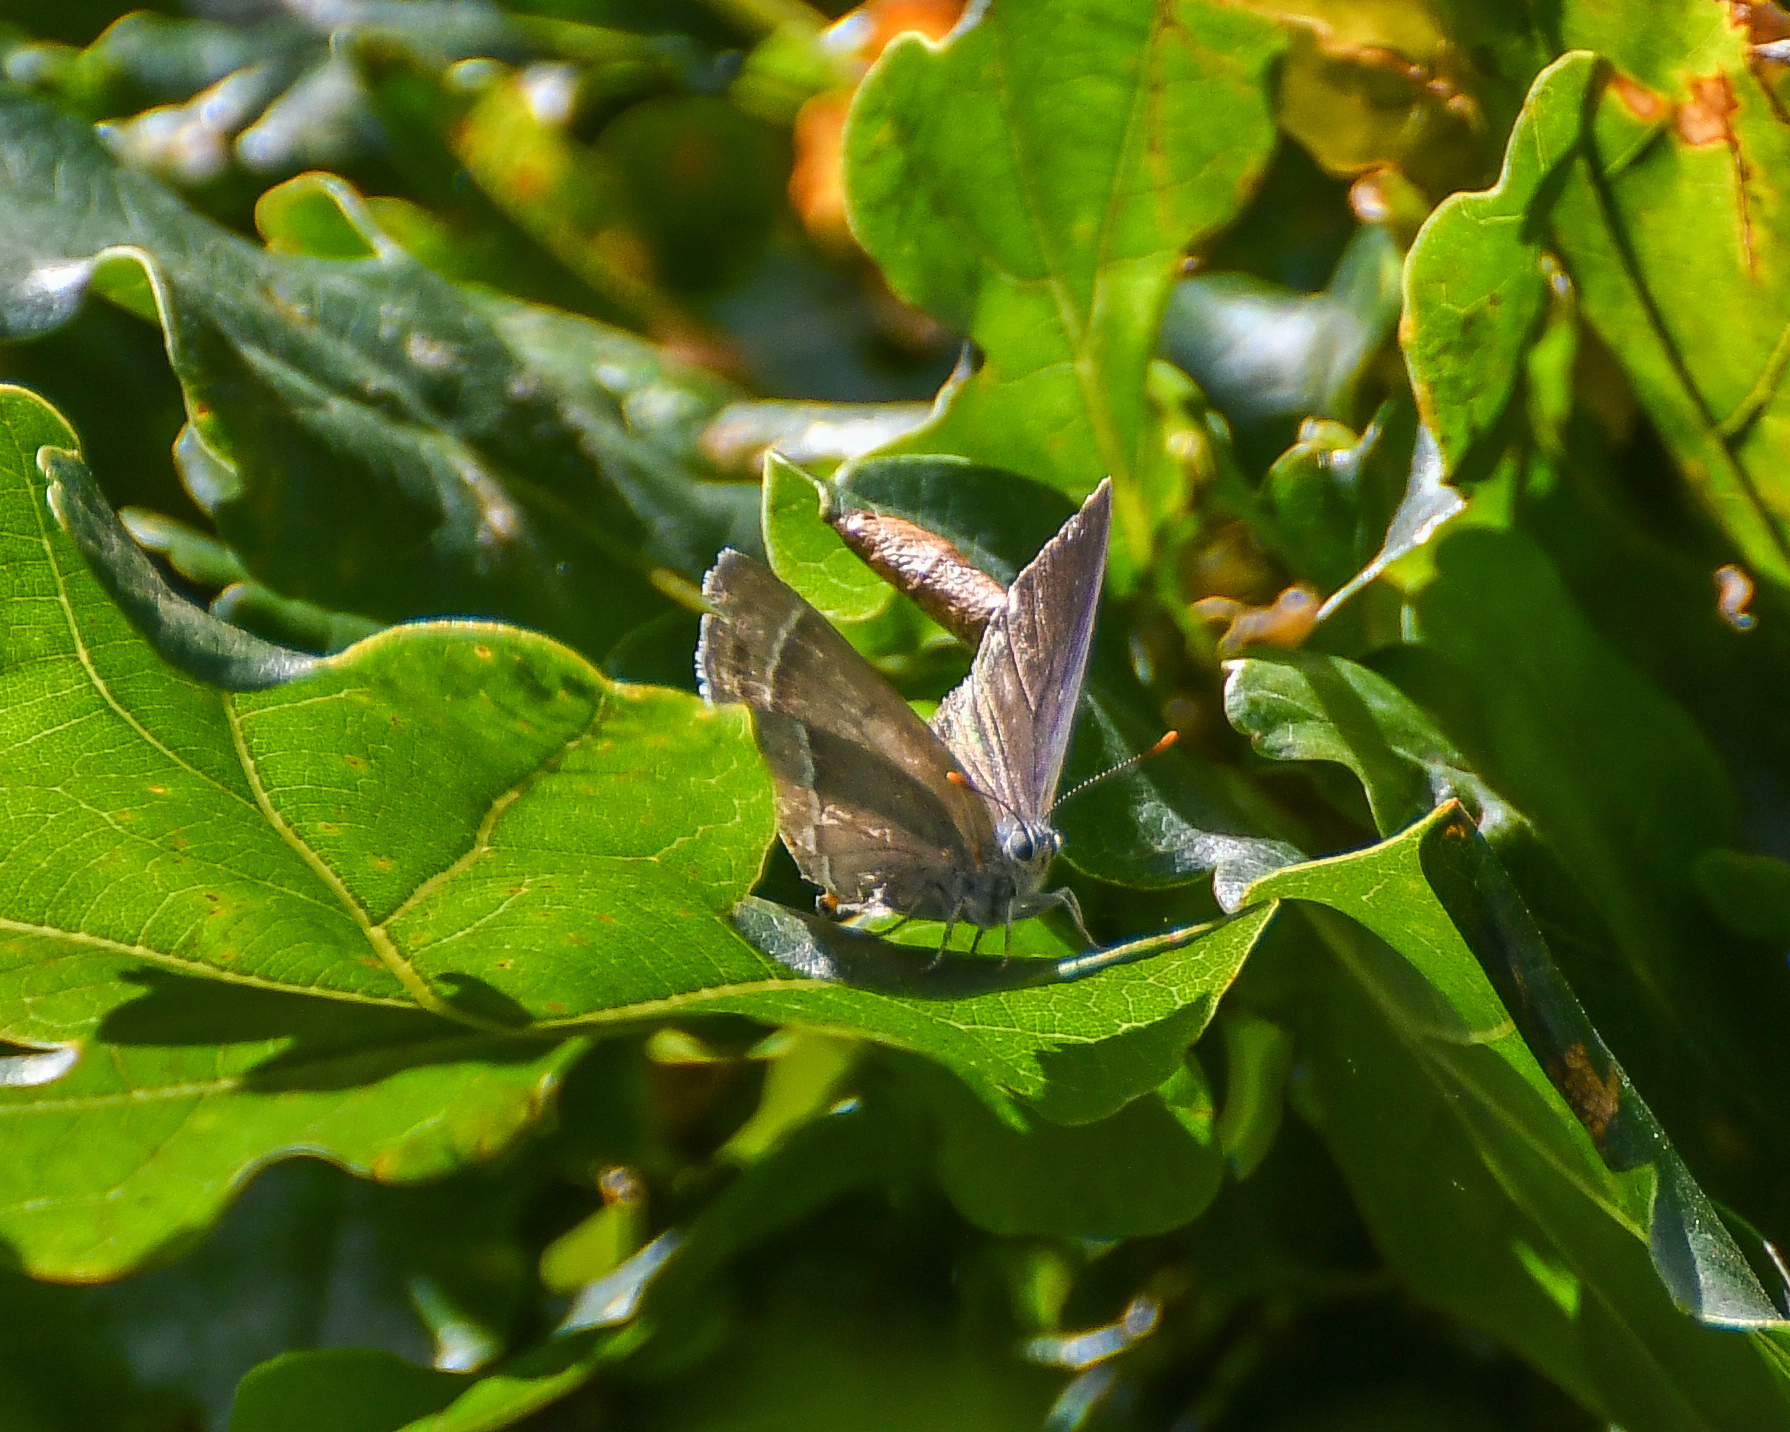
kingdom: Animalia
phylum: Arthropoda
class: Insecta
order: Lepidoptera
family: Lycaenidae
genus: Quercusia
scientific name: Quercusia quercus
